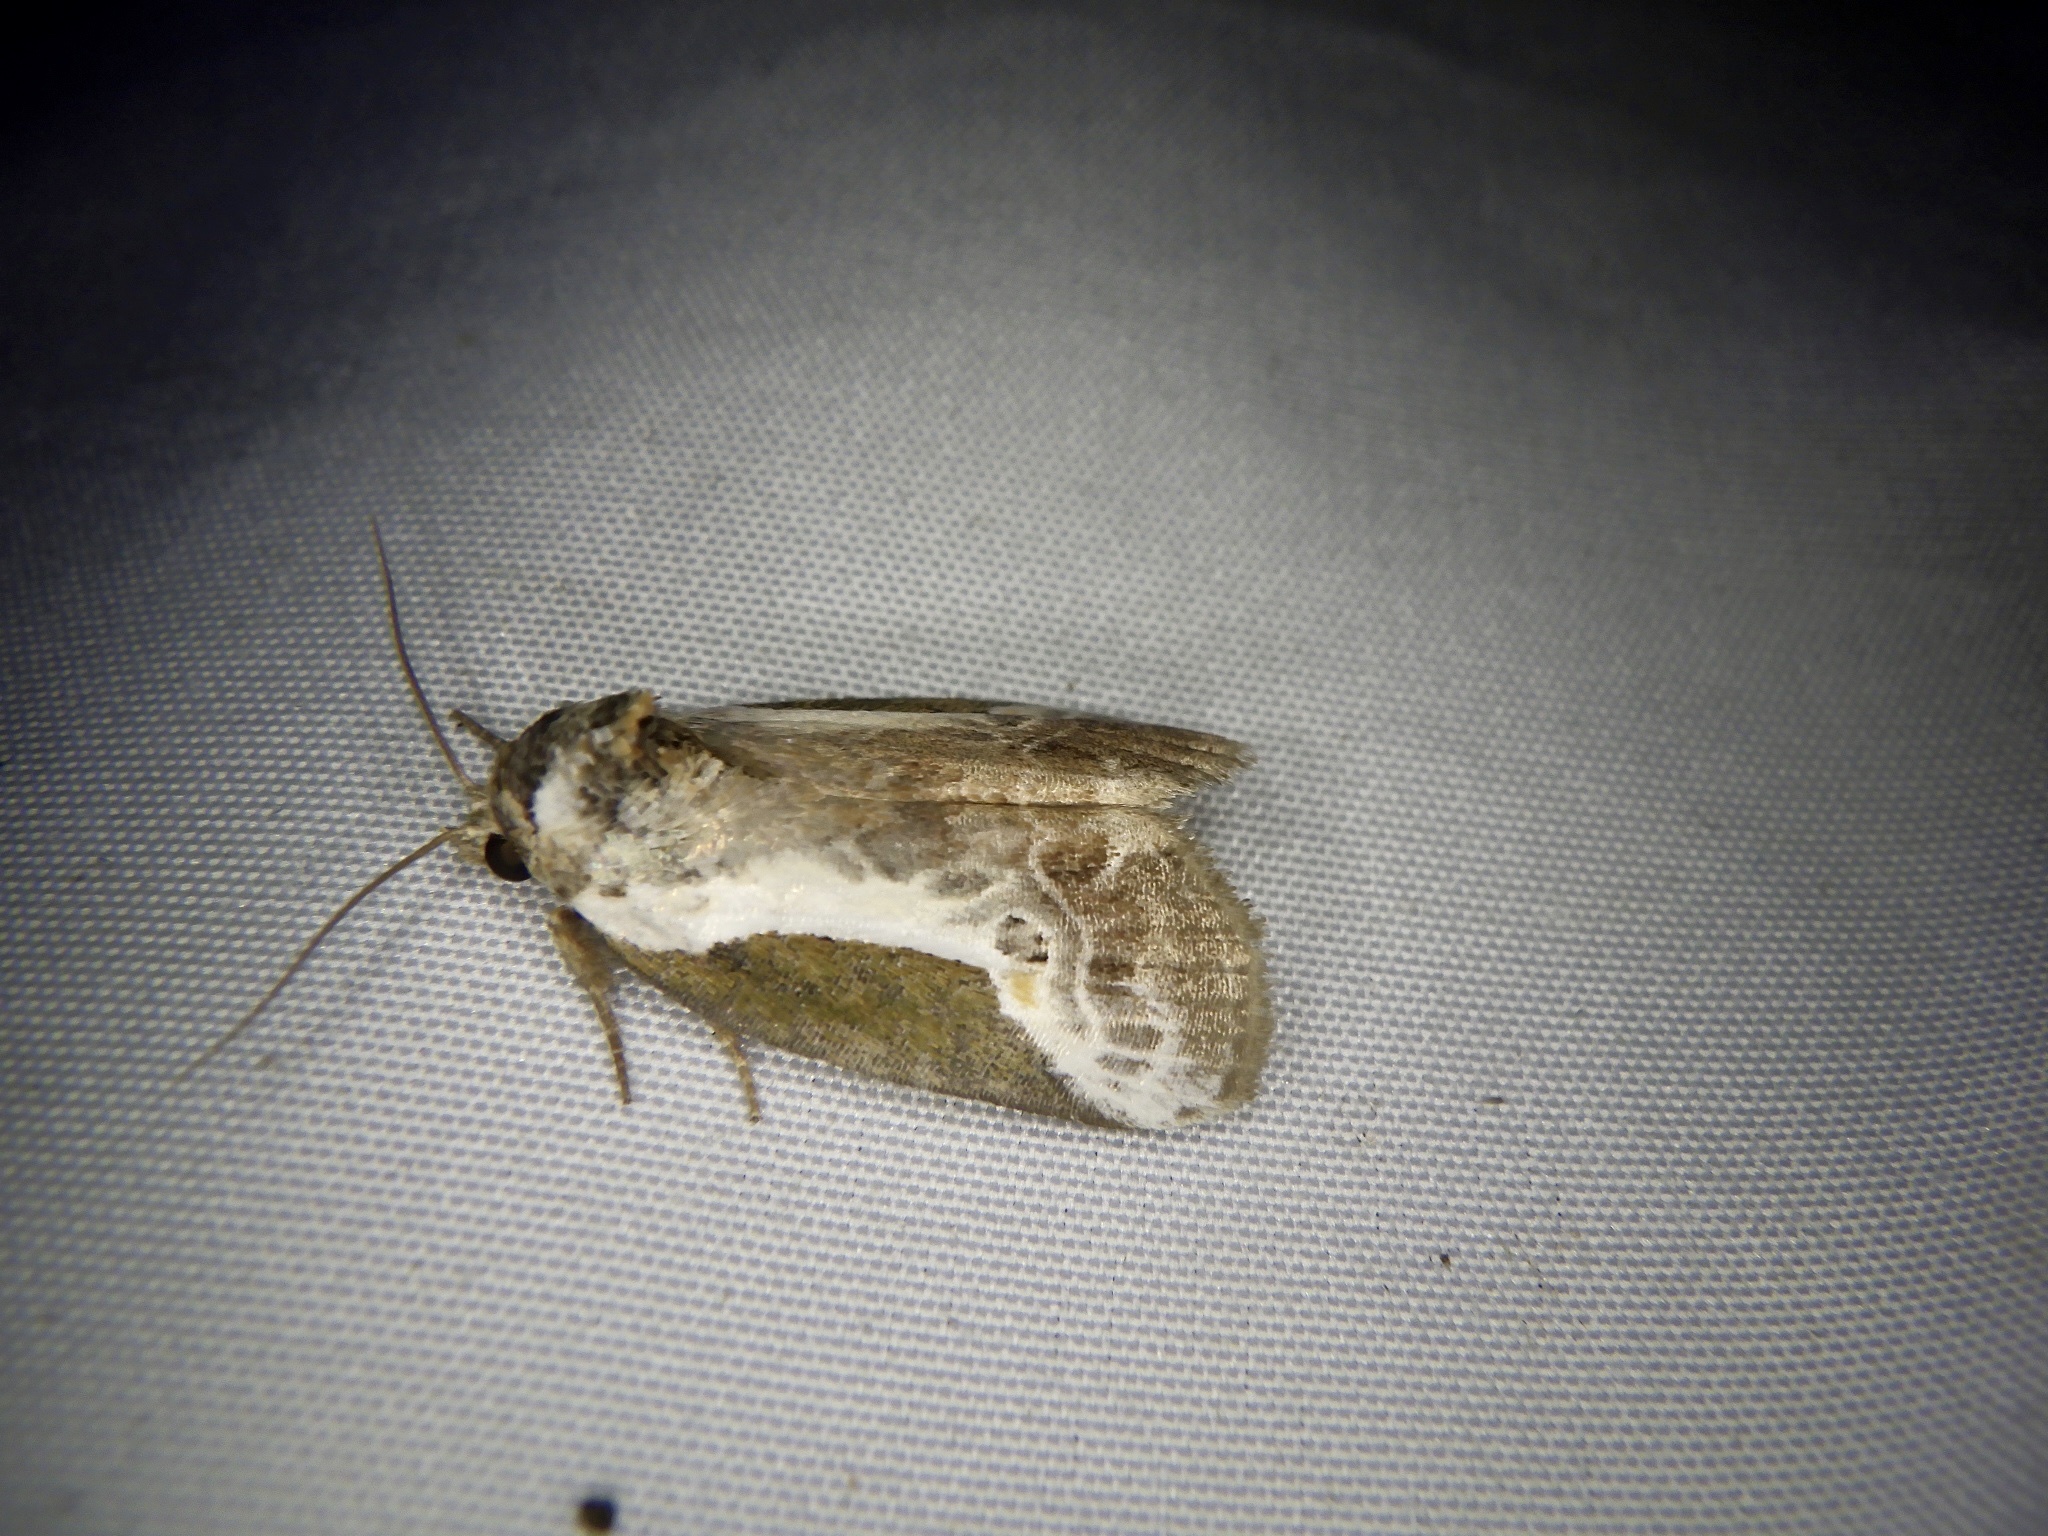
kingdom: Animalia
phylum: Arthropoda
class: Insecta
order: Lepidoptera
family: Noctuidae
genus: Stenoloba
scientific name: Stenoloba jankowskii
